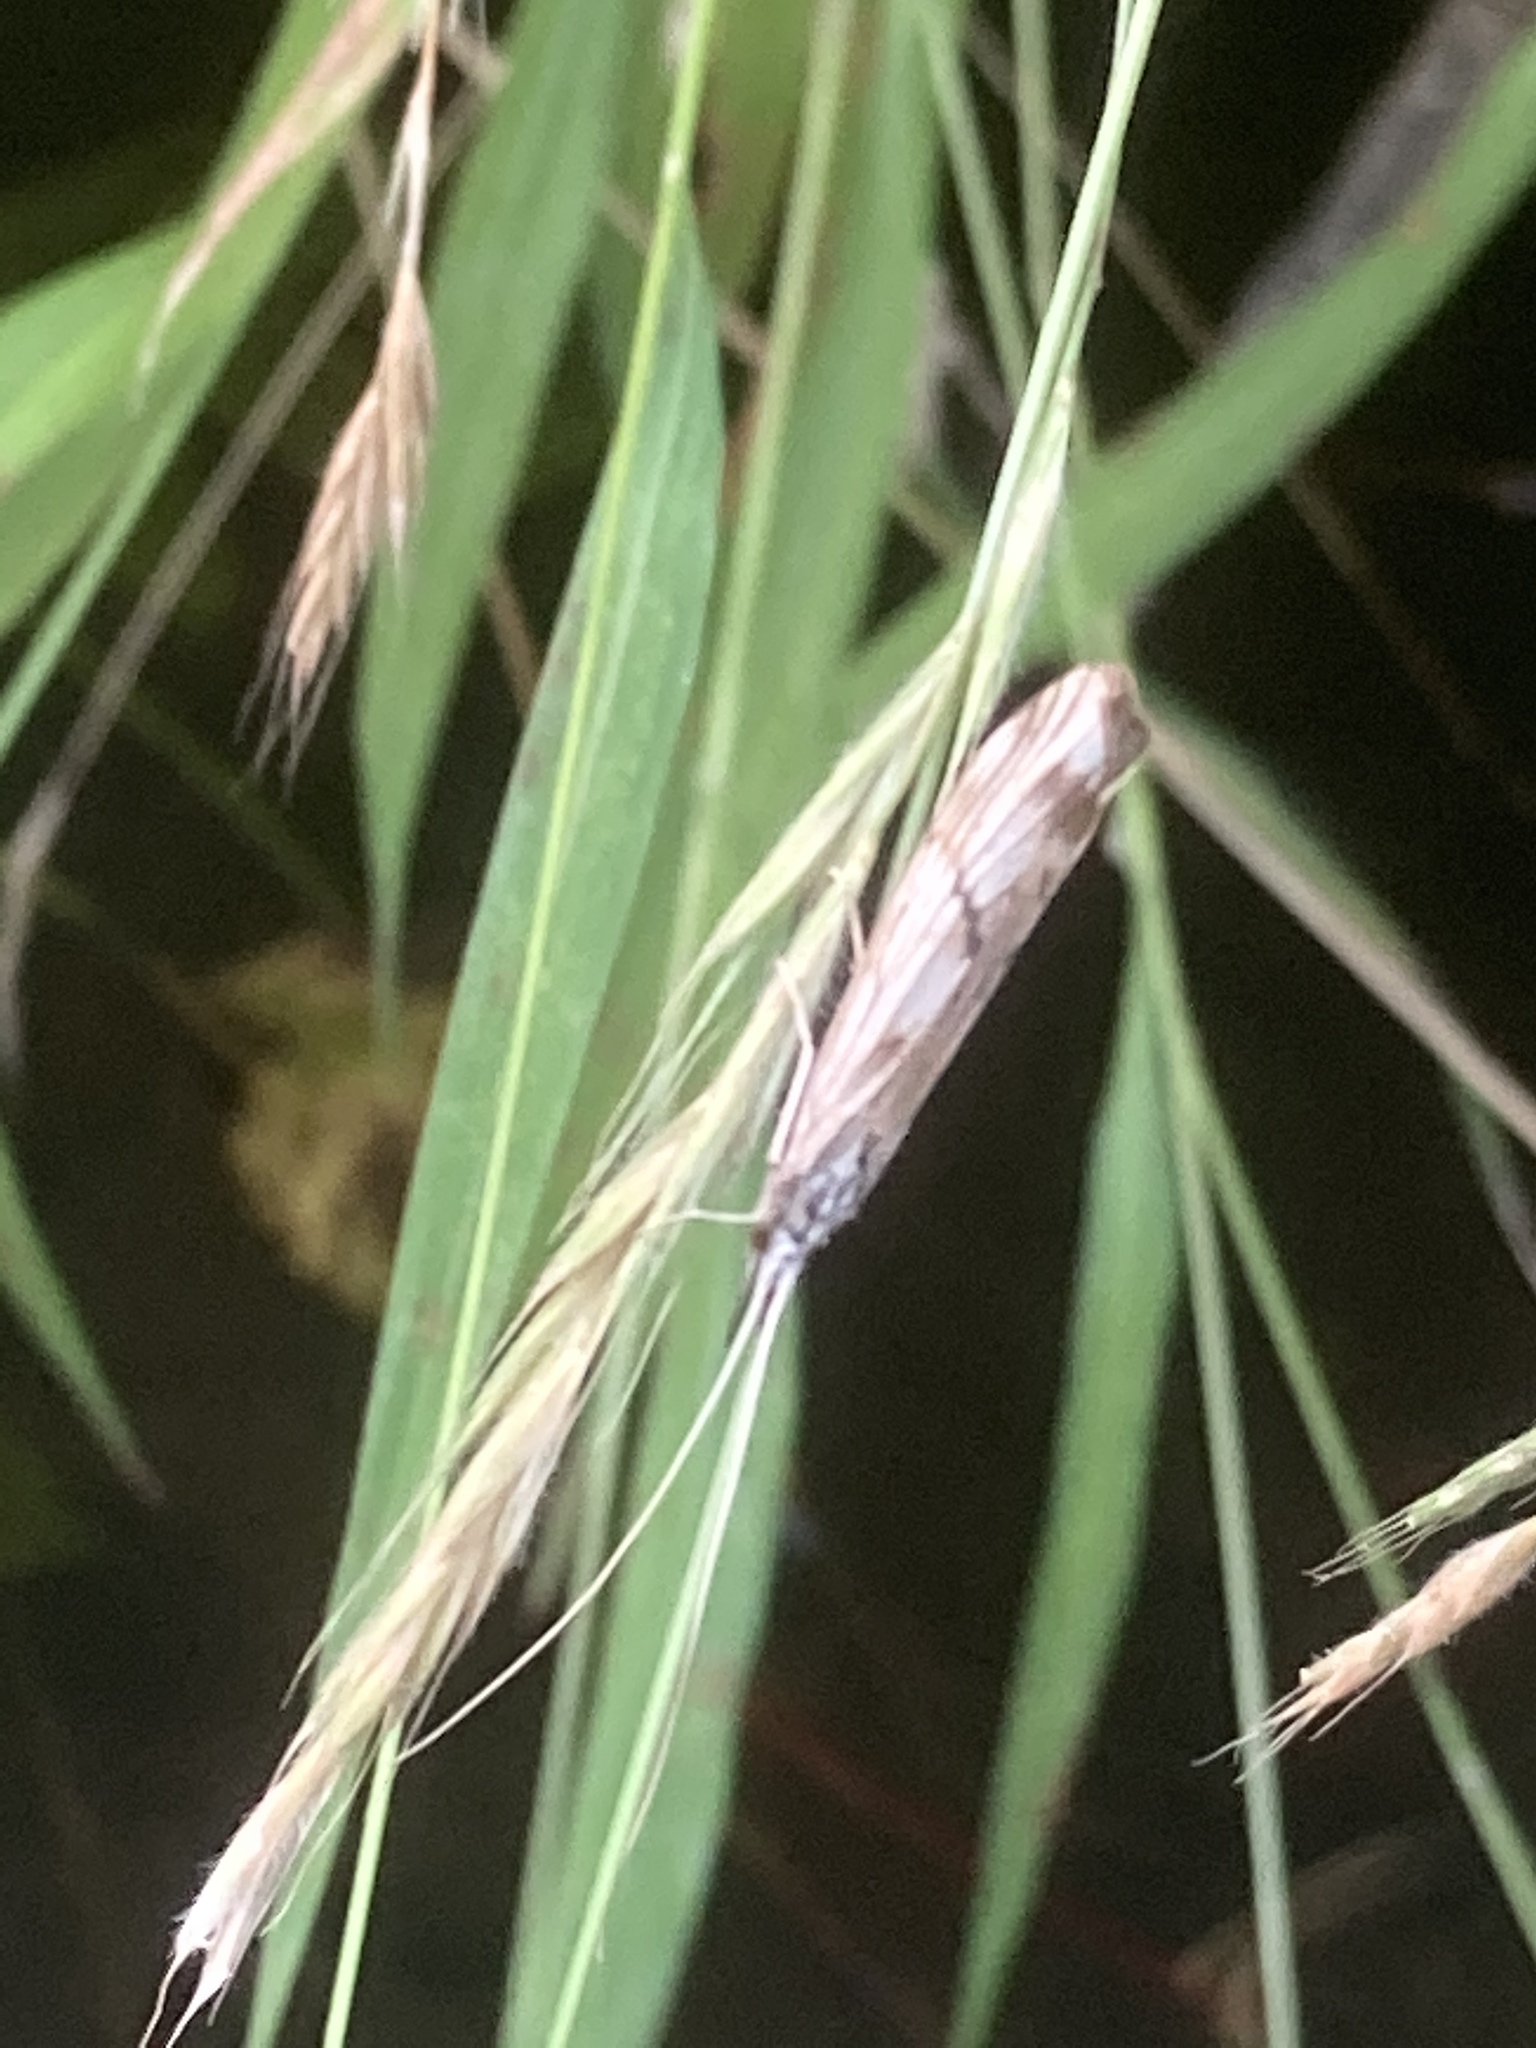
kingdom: Animalia
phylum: Arthropoda
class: Insecta
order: Trichoptera
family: Odontoceridae
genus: Odontocerum
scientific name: Odontocerum albicorne
